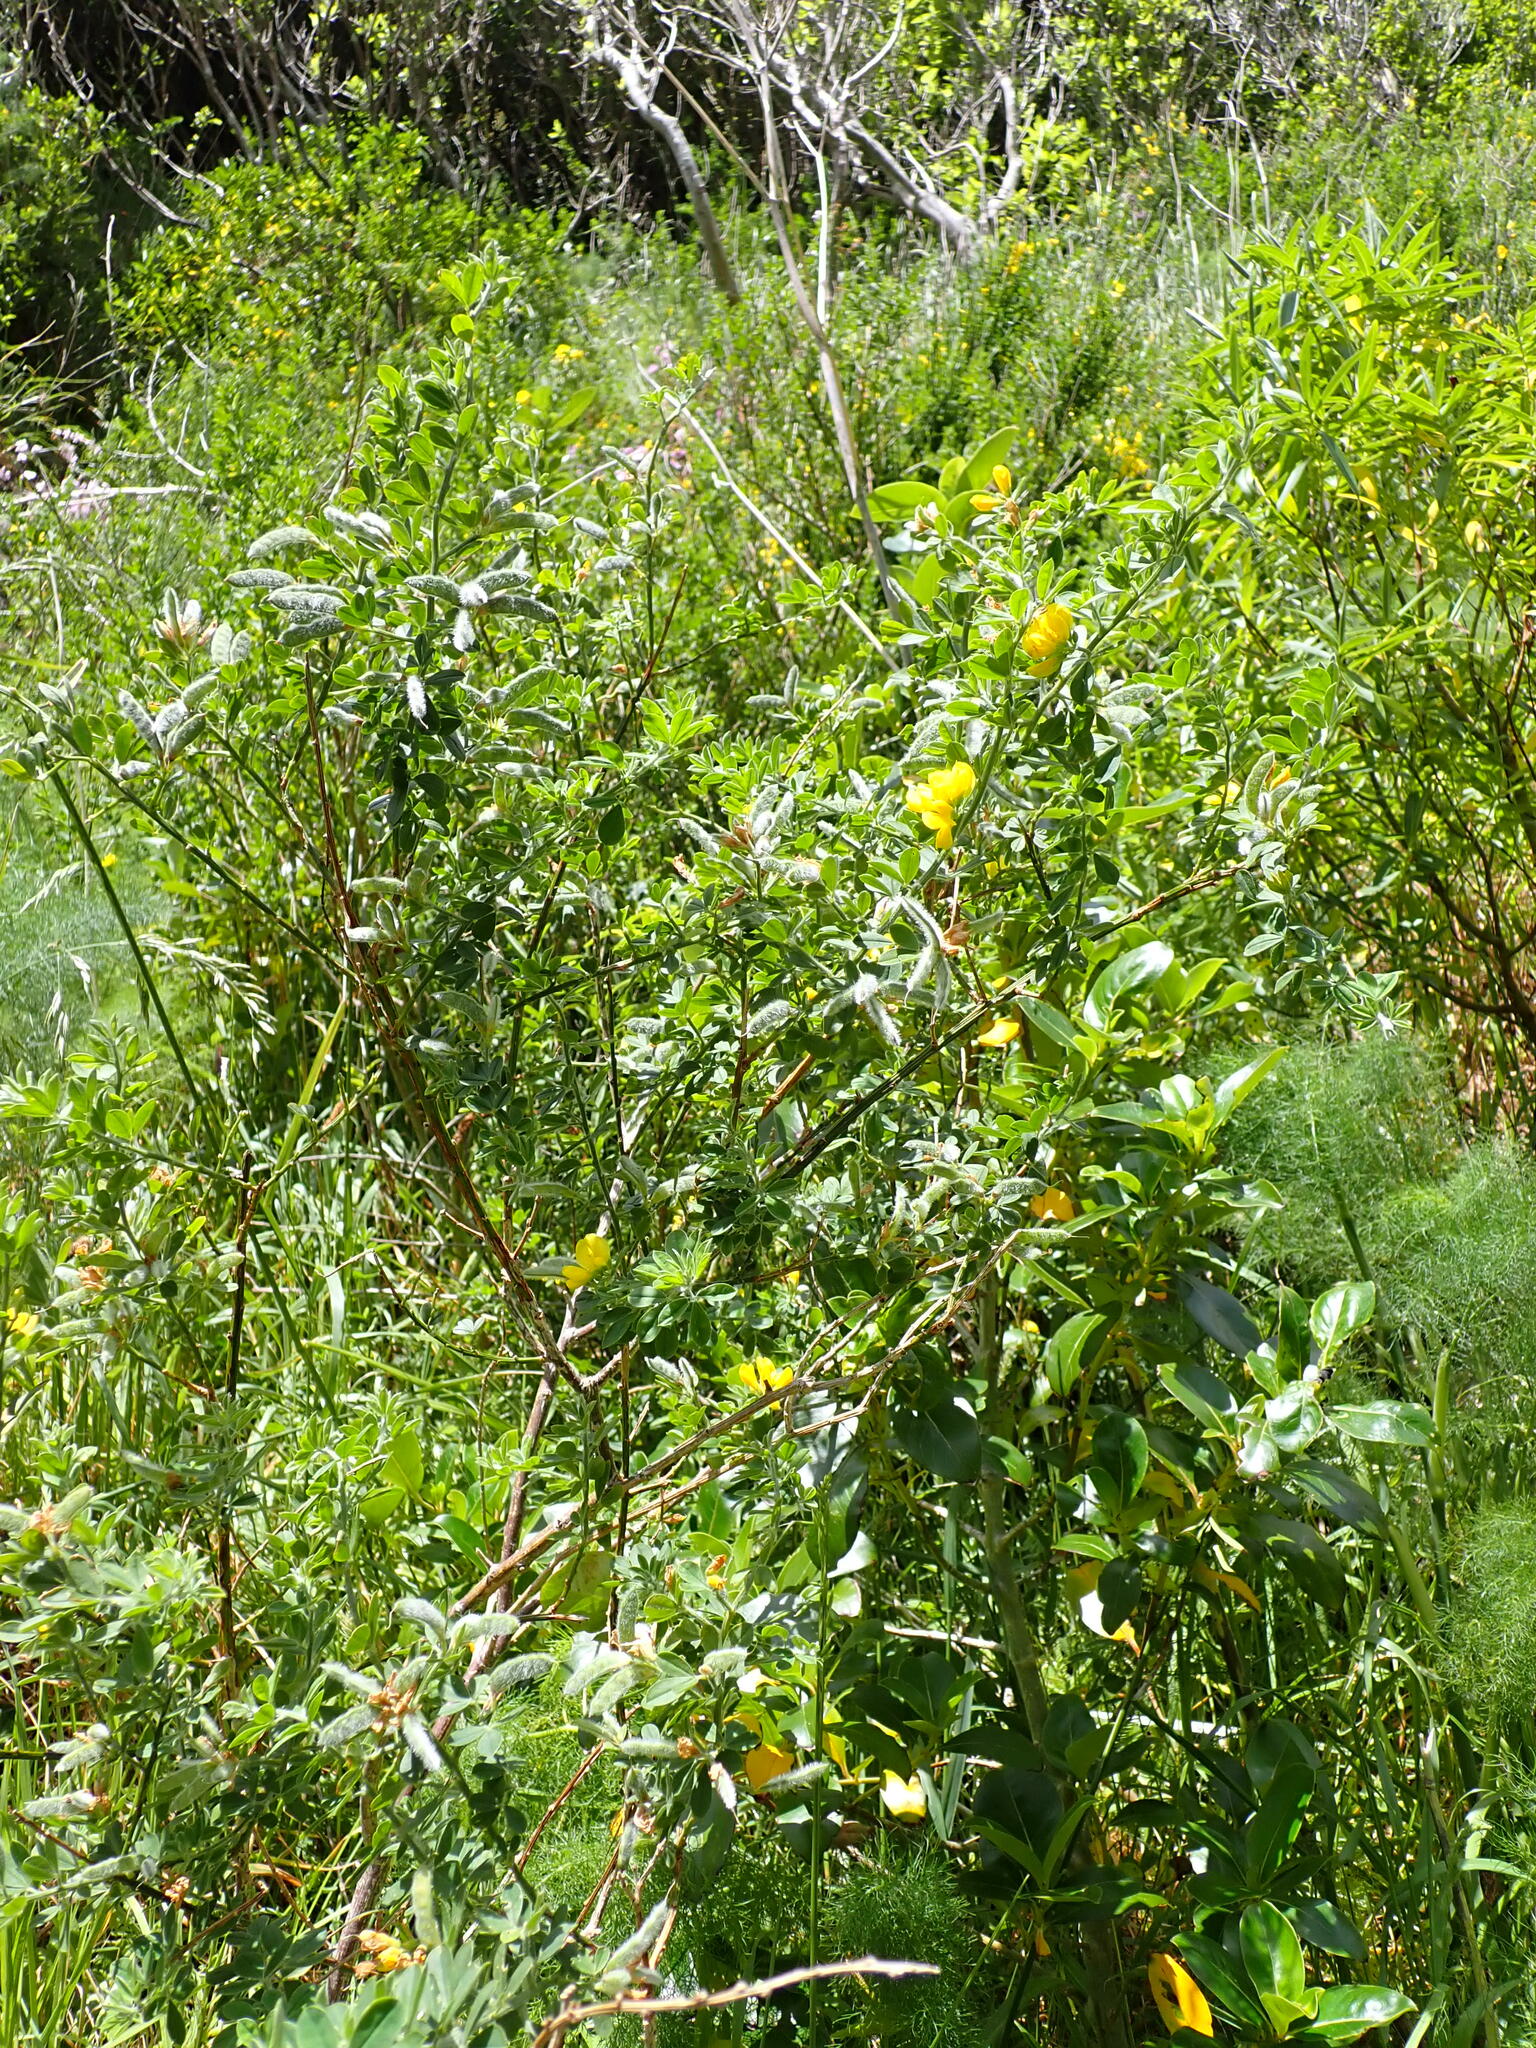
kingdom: Plantae
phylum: Tracheophyta
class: Magnoliopsida
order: Fabales
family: Fabaceae
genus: Genista
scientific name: Genista monspessulana
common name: Montpellier broom
